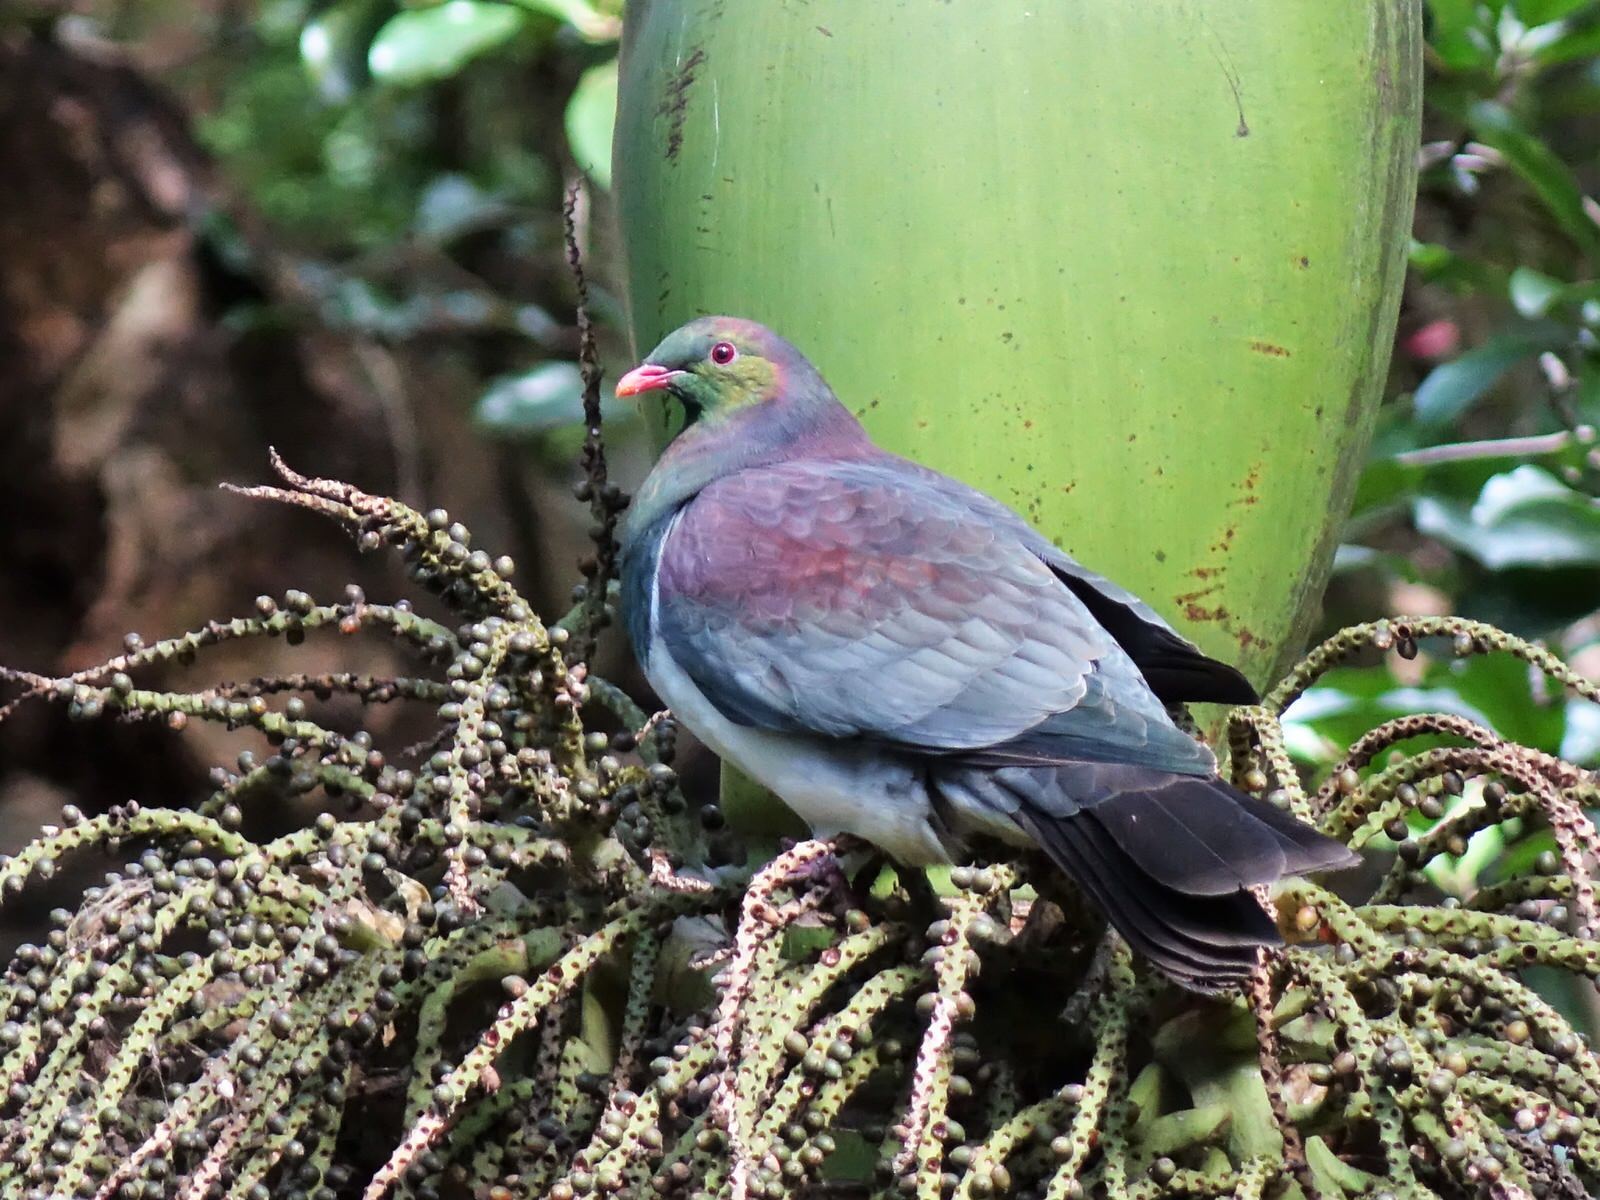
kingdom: Animalia
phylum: Chordata
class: Aves
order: Columbiformes
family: Columbidae
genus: Hemiphaga
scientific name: Hemiphaga novaeseelandiae
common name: New zealand pigeon
